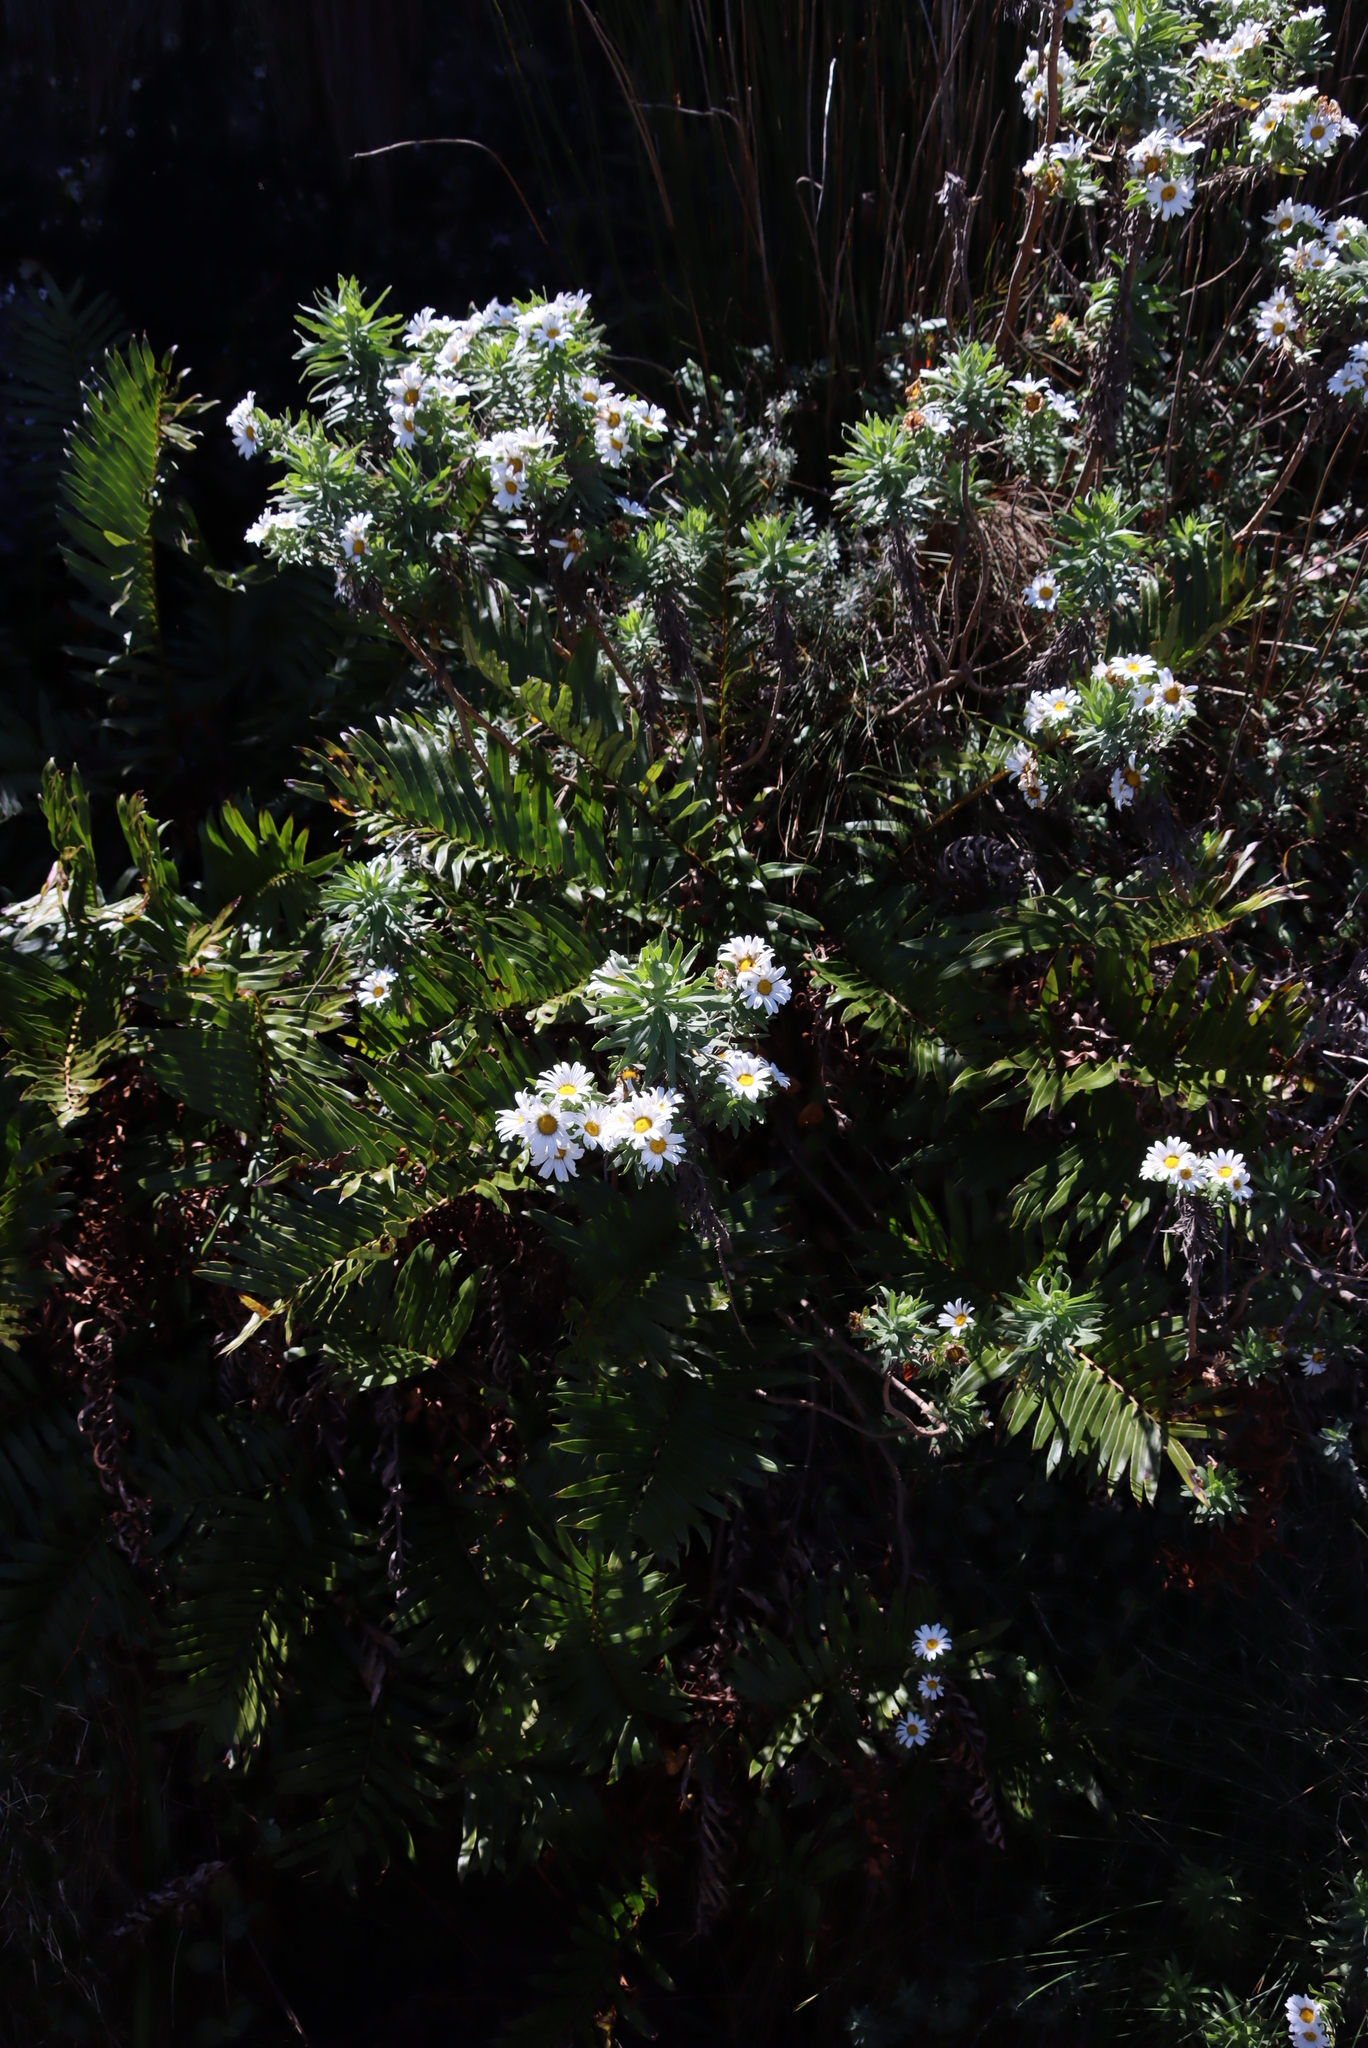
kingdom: Plantae
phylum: Tracheophyta
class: Magnoliopsida
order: Asterales
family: Asteraceae
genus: Osmitopsis
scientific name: Osmitopsis asteriscoides
